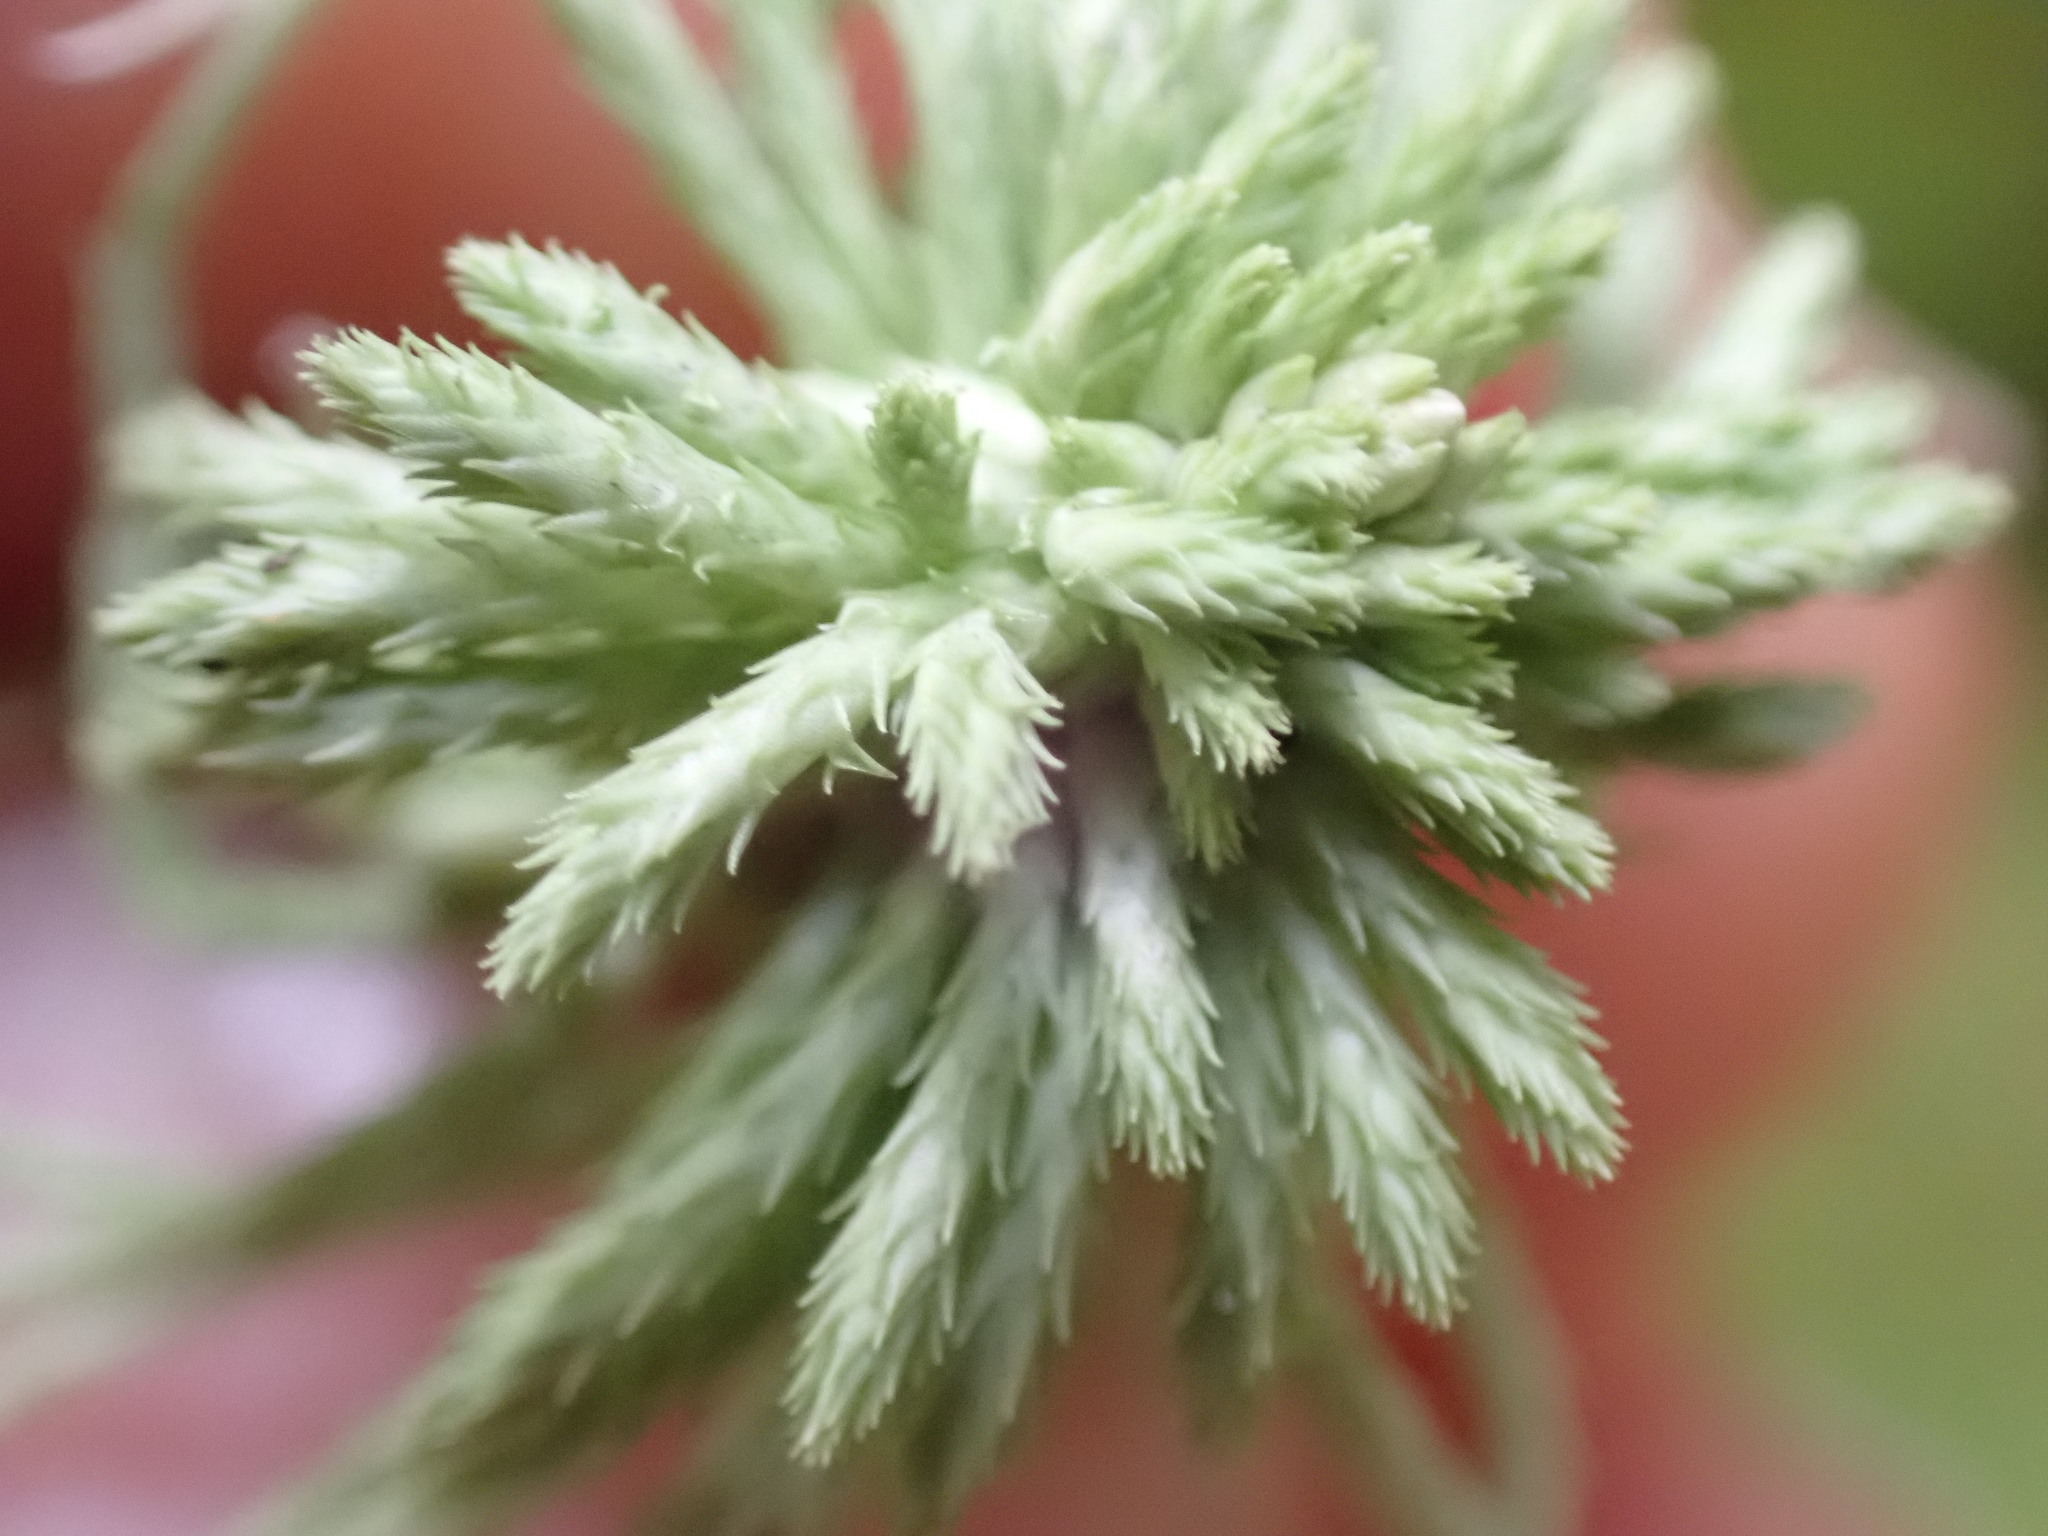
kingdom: Plantae
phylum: Bryophyta
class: Sphagnopsida
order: Sphagnales
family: Sphagnaceae
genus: Sphagnum
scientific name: Sphagnum rubiginosum
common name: Variegated peat moss
